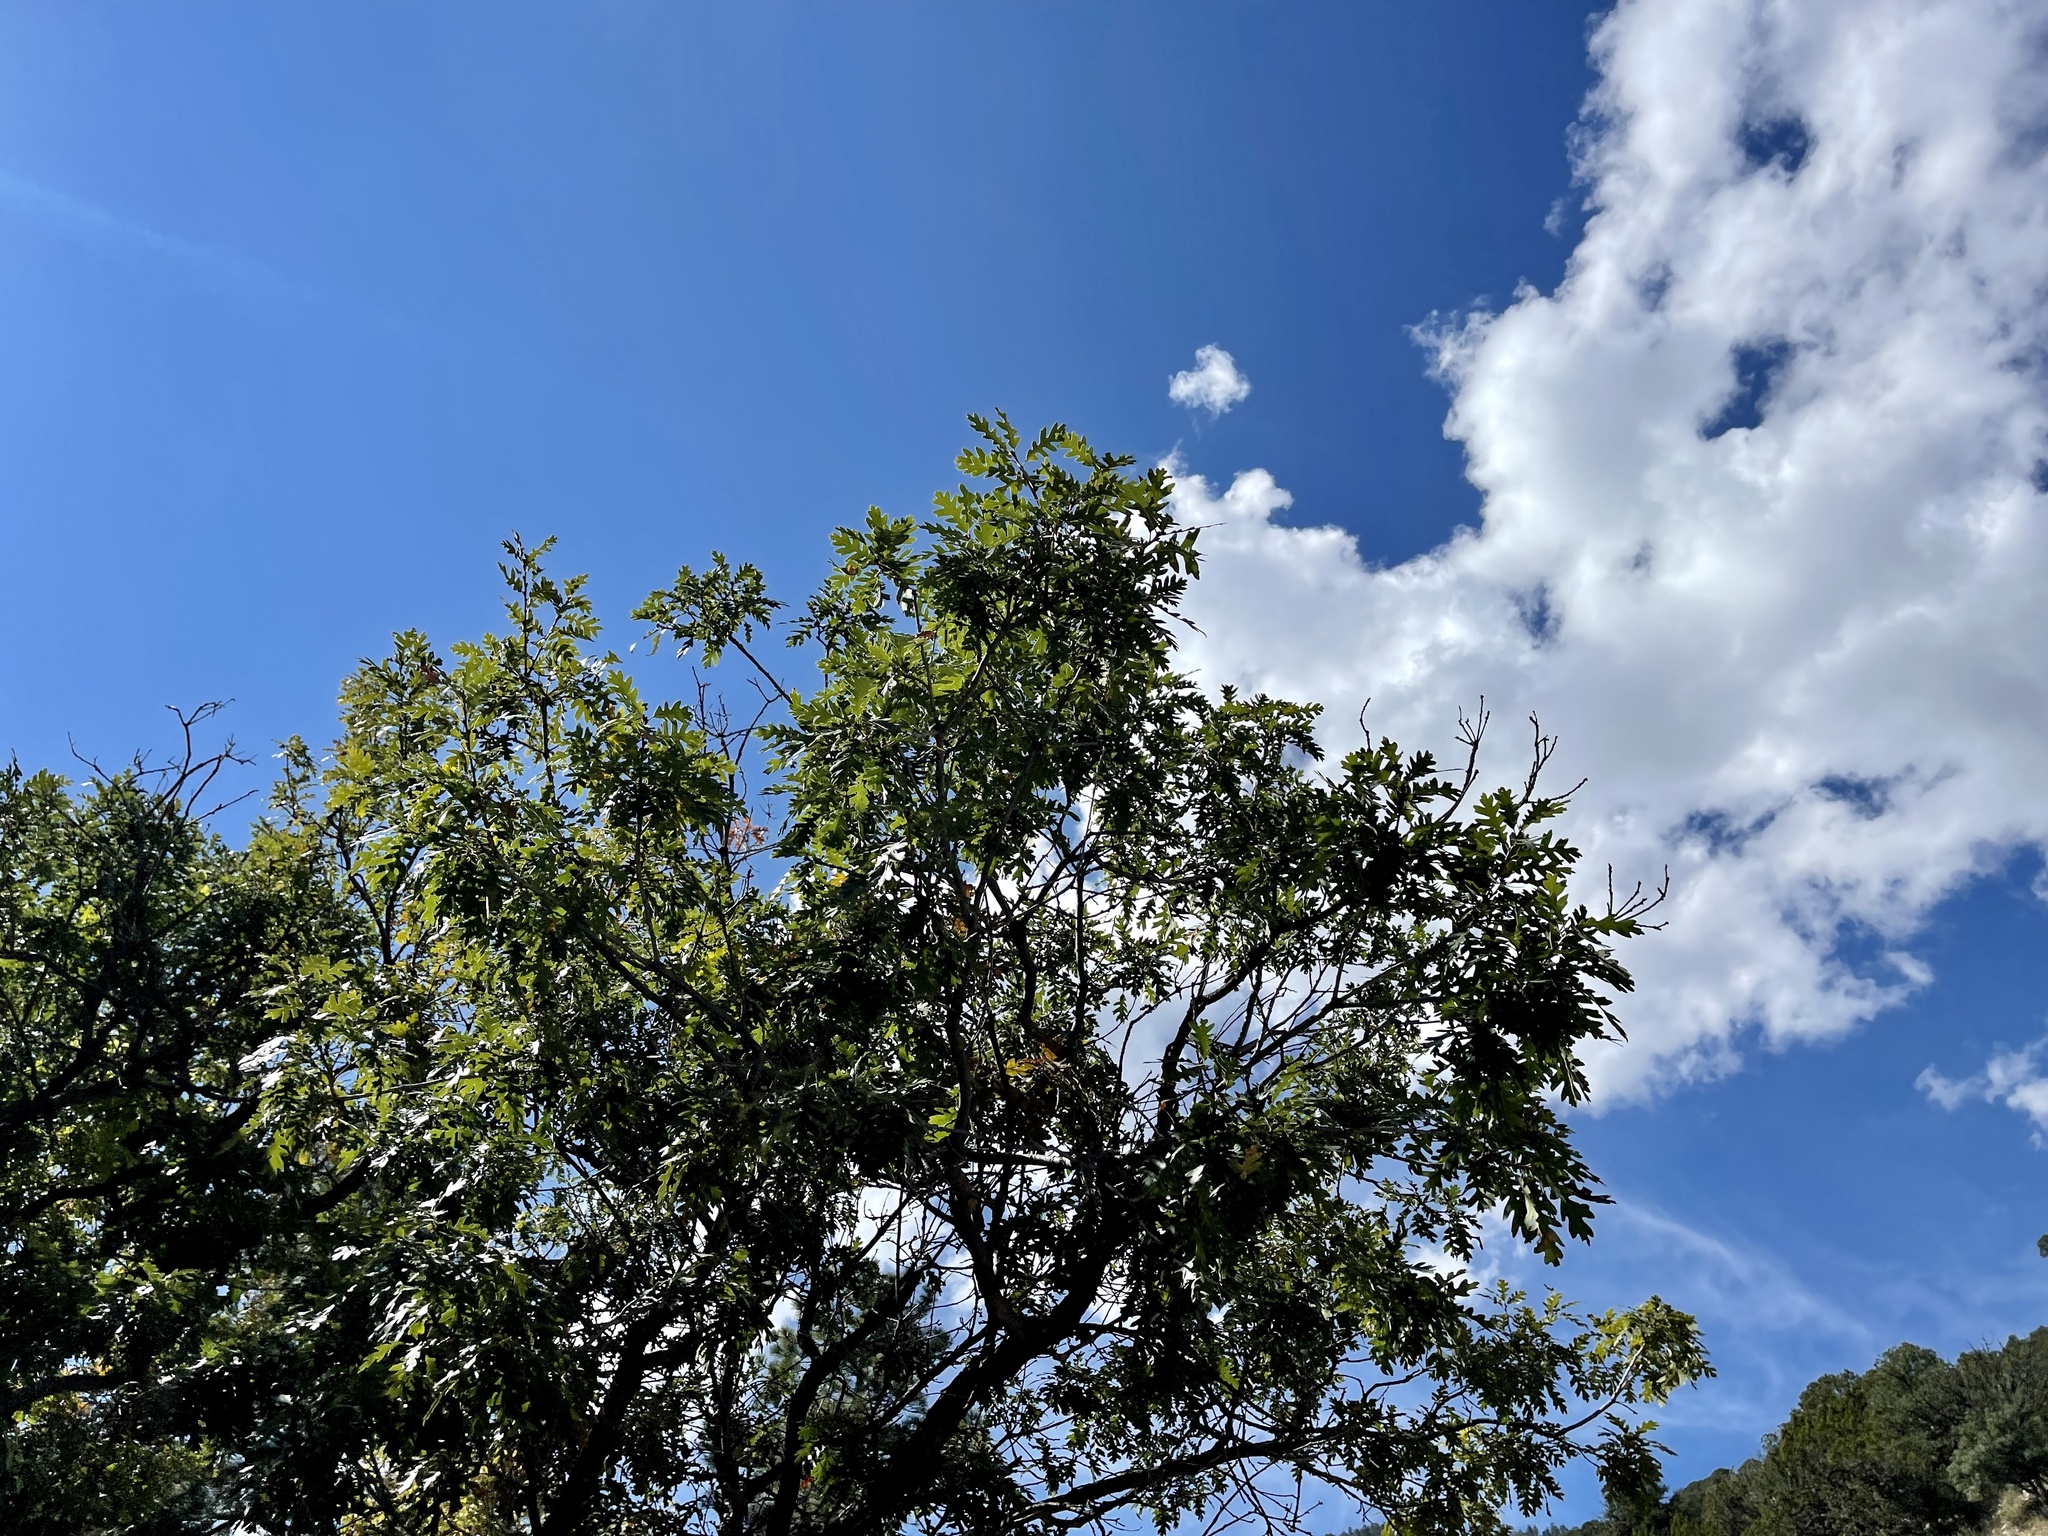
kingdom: Plantae
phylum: Tracheophyta
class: Magnoliopsida
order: Fagales
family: Fagaceae
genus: Quercus
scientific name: Quercus gambelii
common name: Gambel oak
